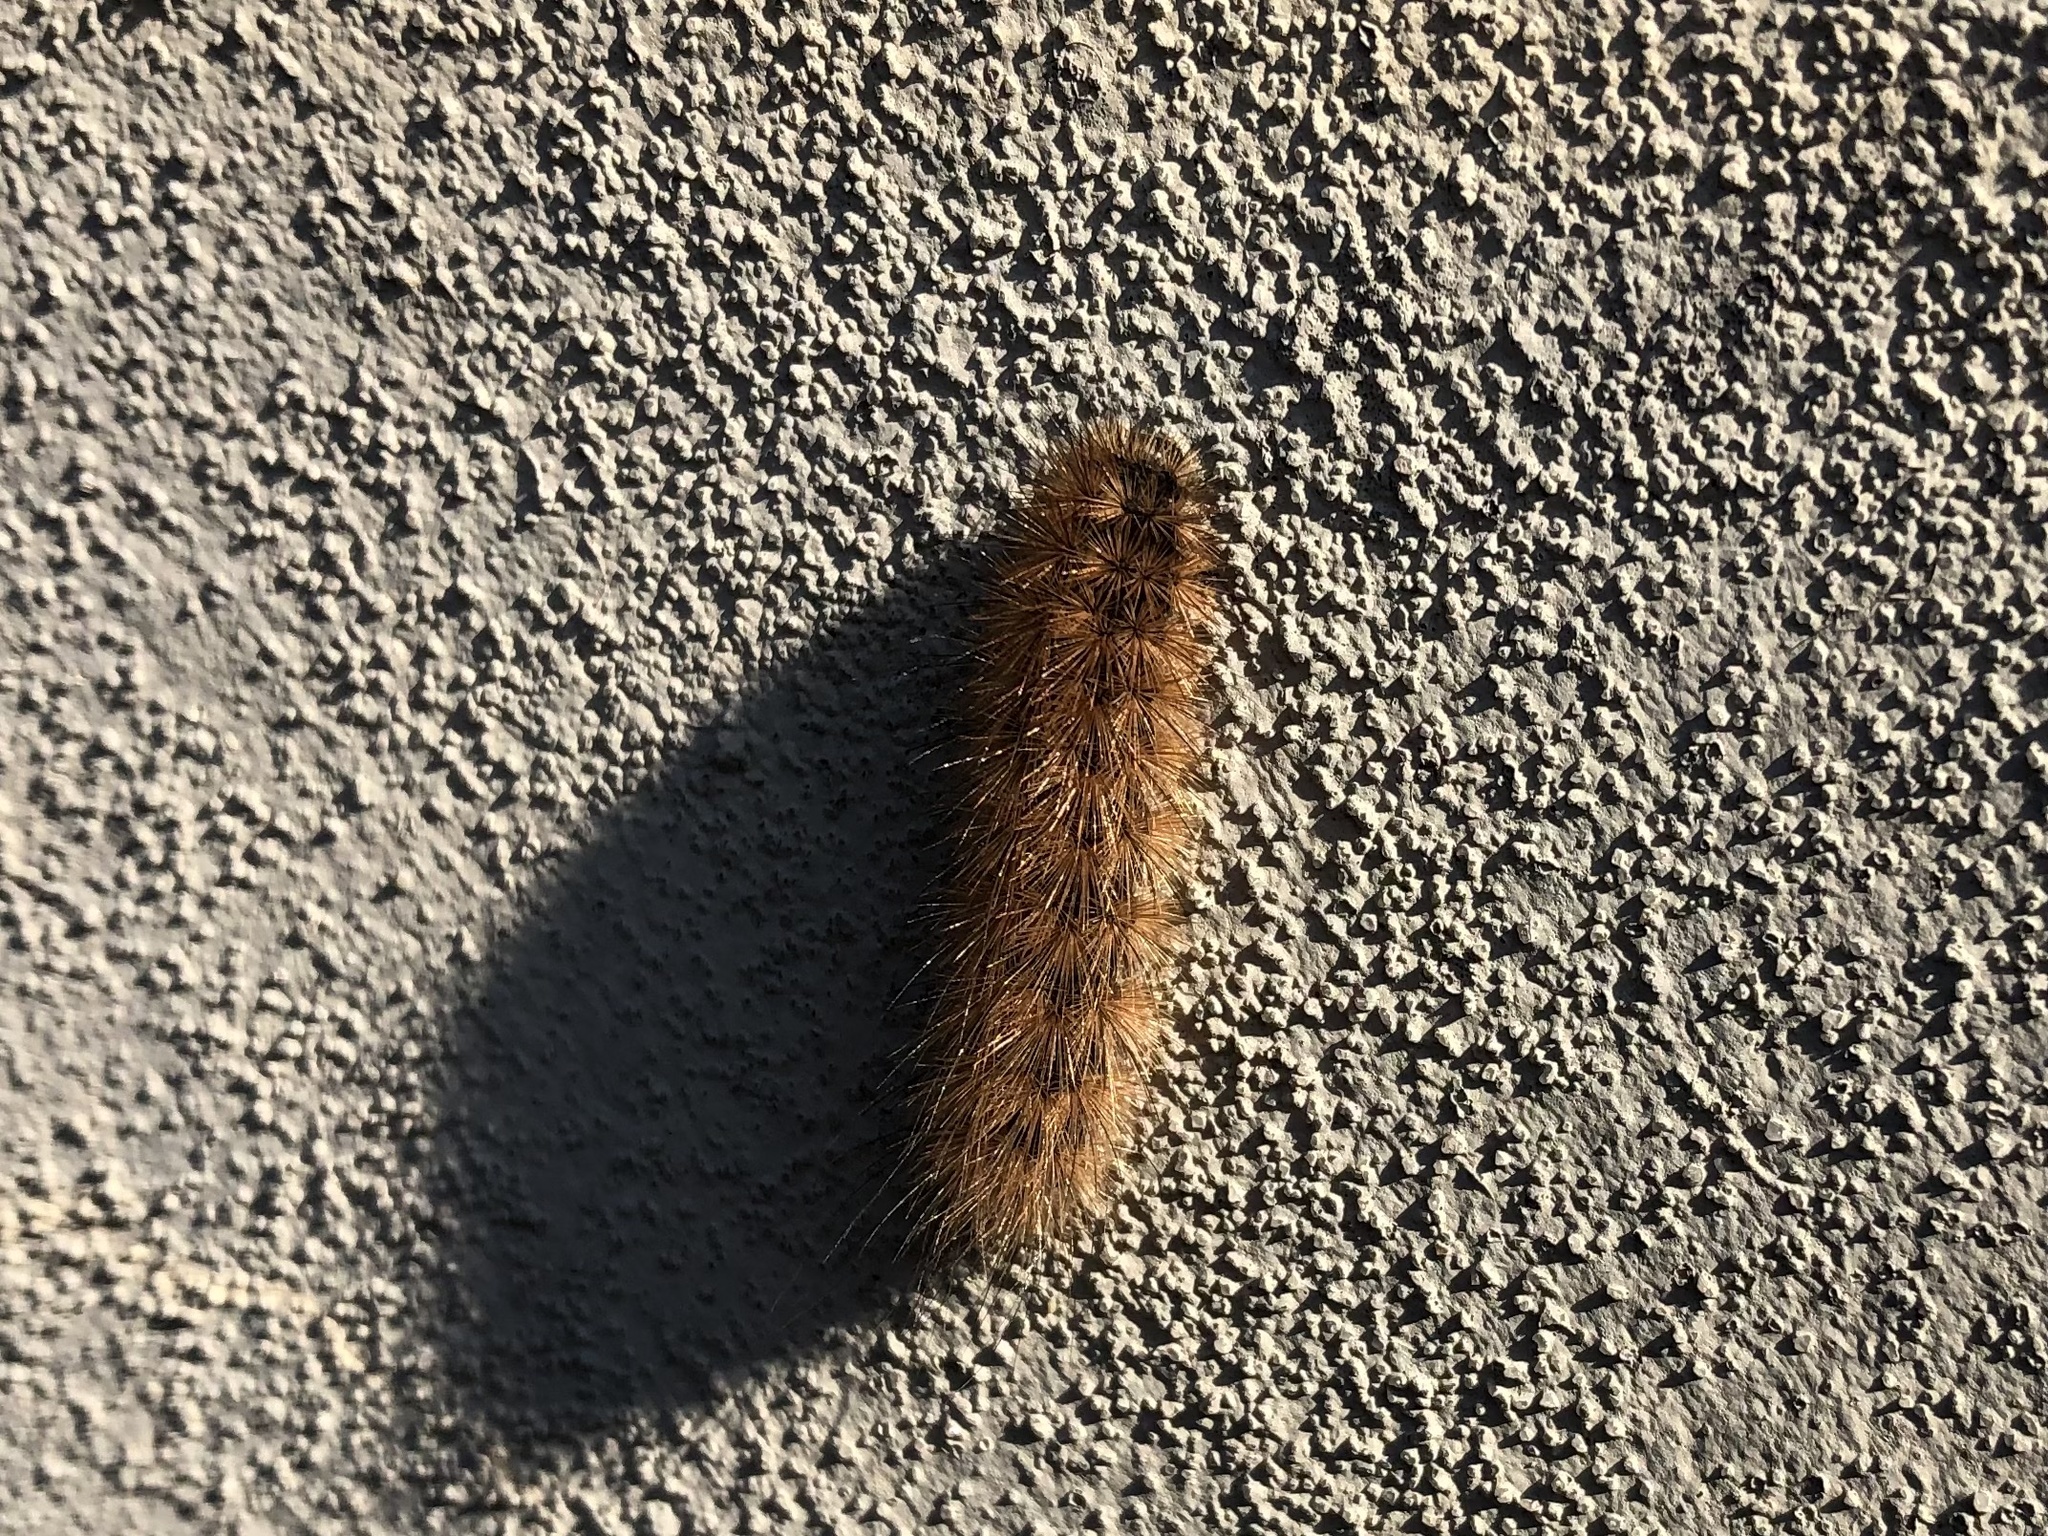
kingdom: Animalia
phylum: Arthropoda
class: Insecta
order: Lepidoptera
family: Erebidae
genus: Phragmatobia
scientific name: Phragmatobia fuliginosa
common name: Ruby tiger
